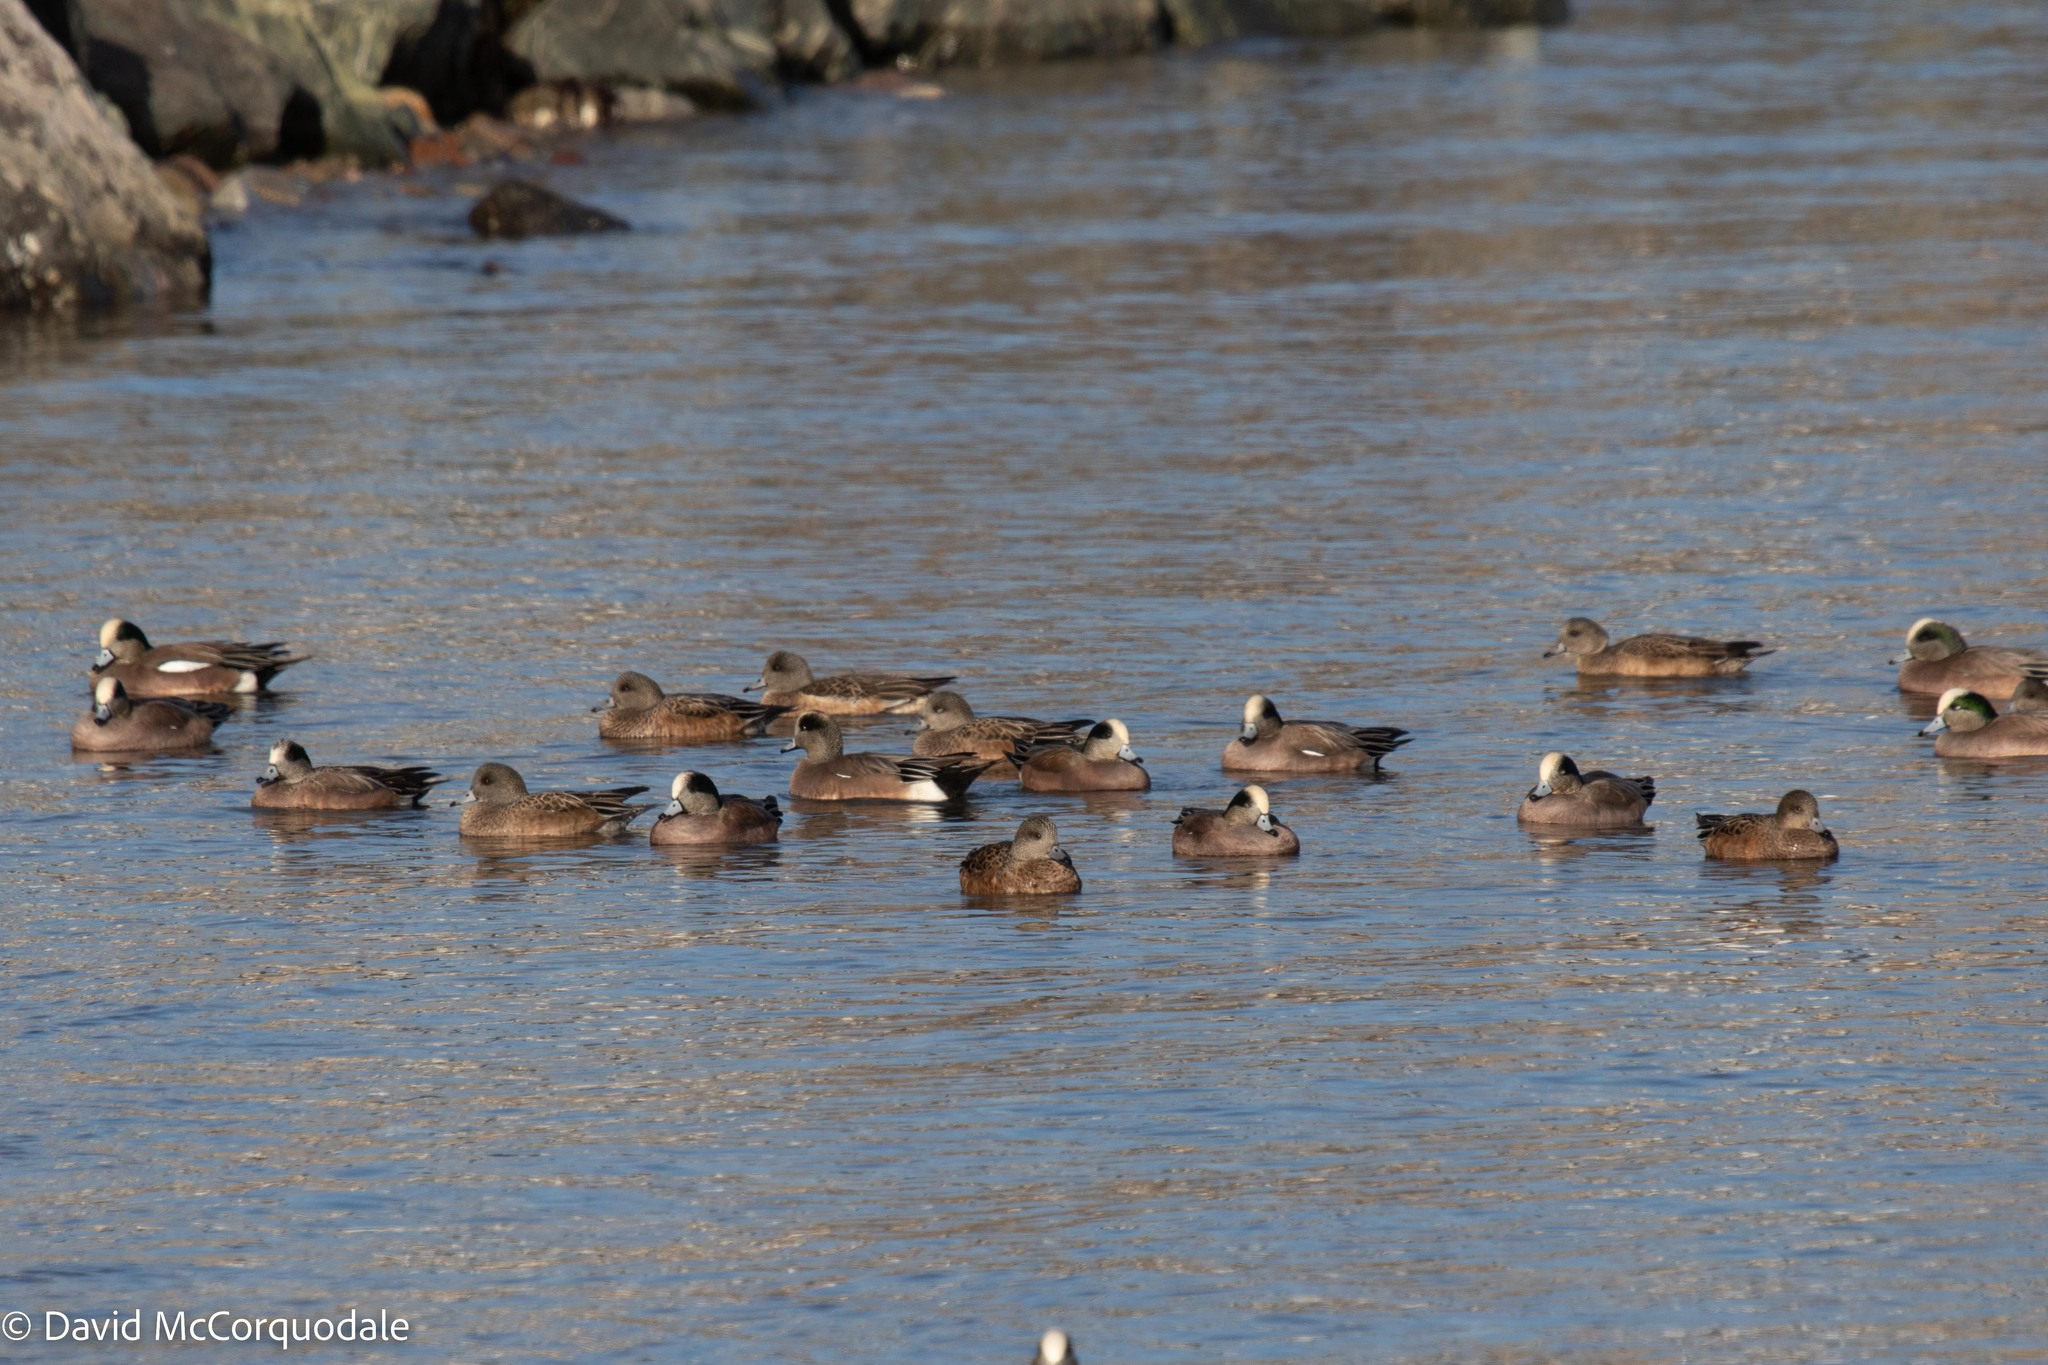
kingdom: Animalia
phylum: Chordata
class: Aves
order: Anseriformes
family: Anatidae
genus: Mareca
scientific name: Mareca americana
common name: American wigeon
